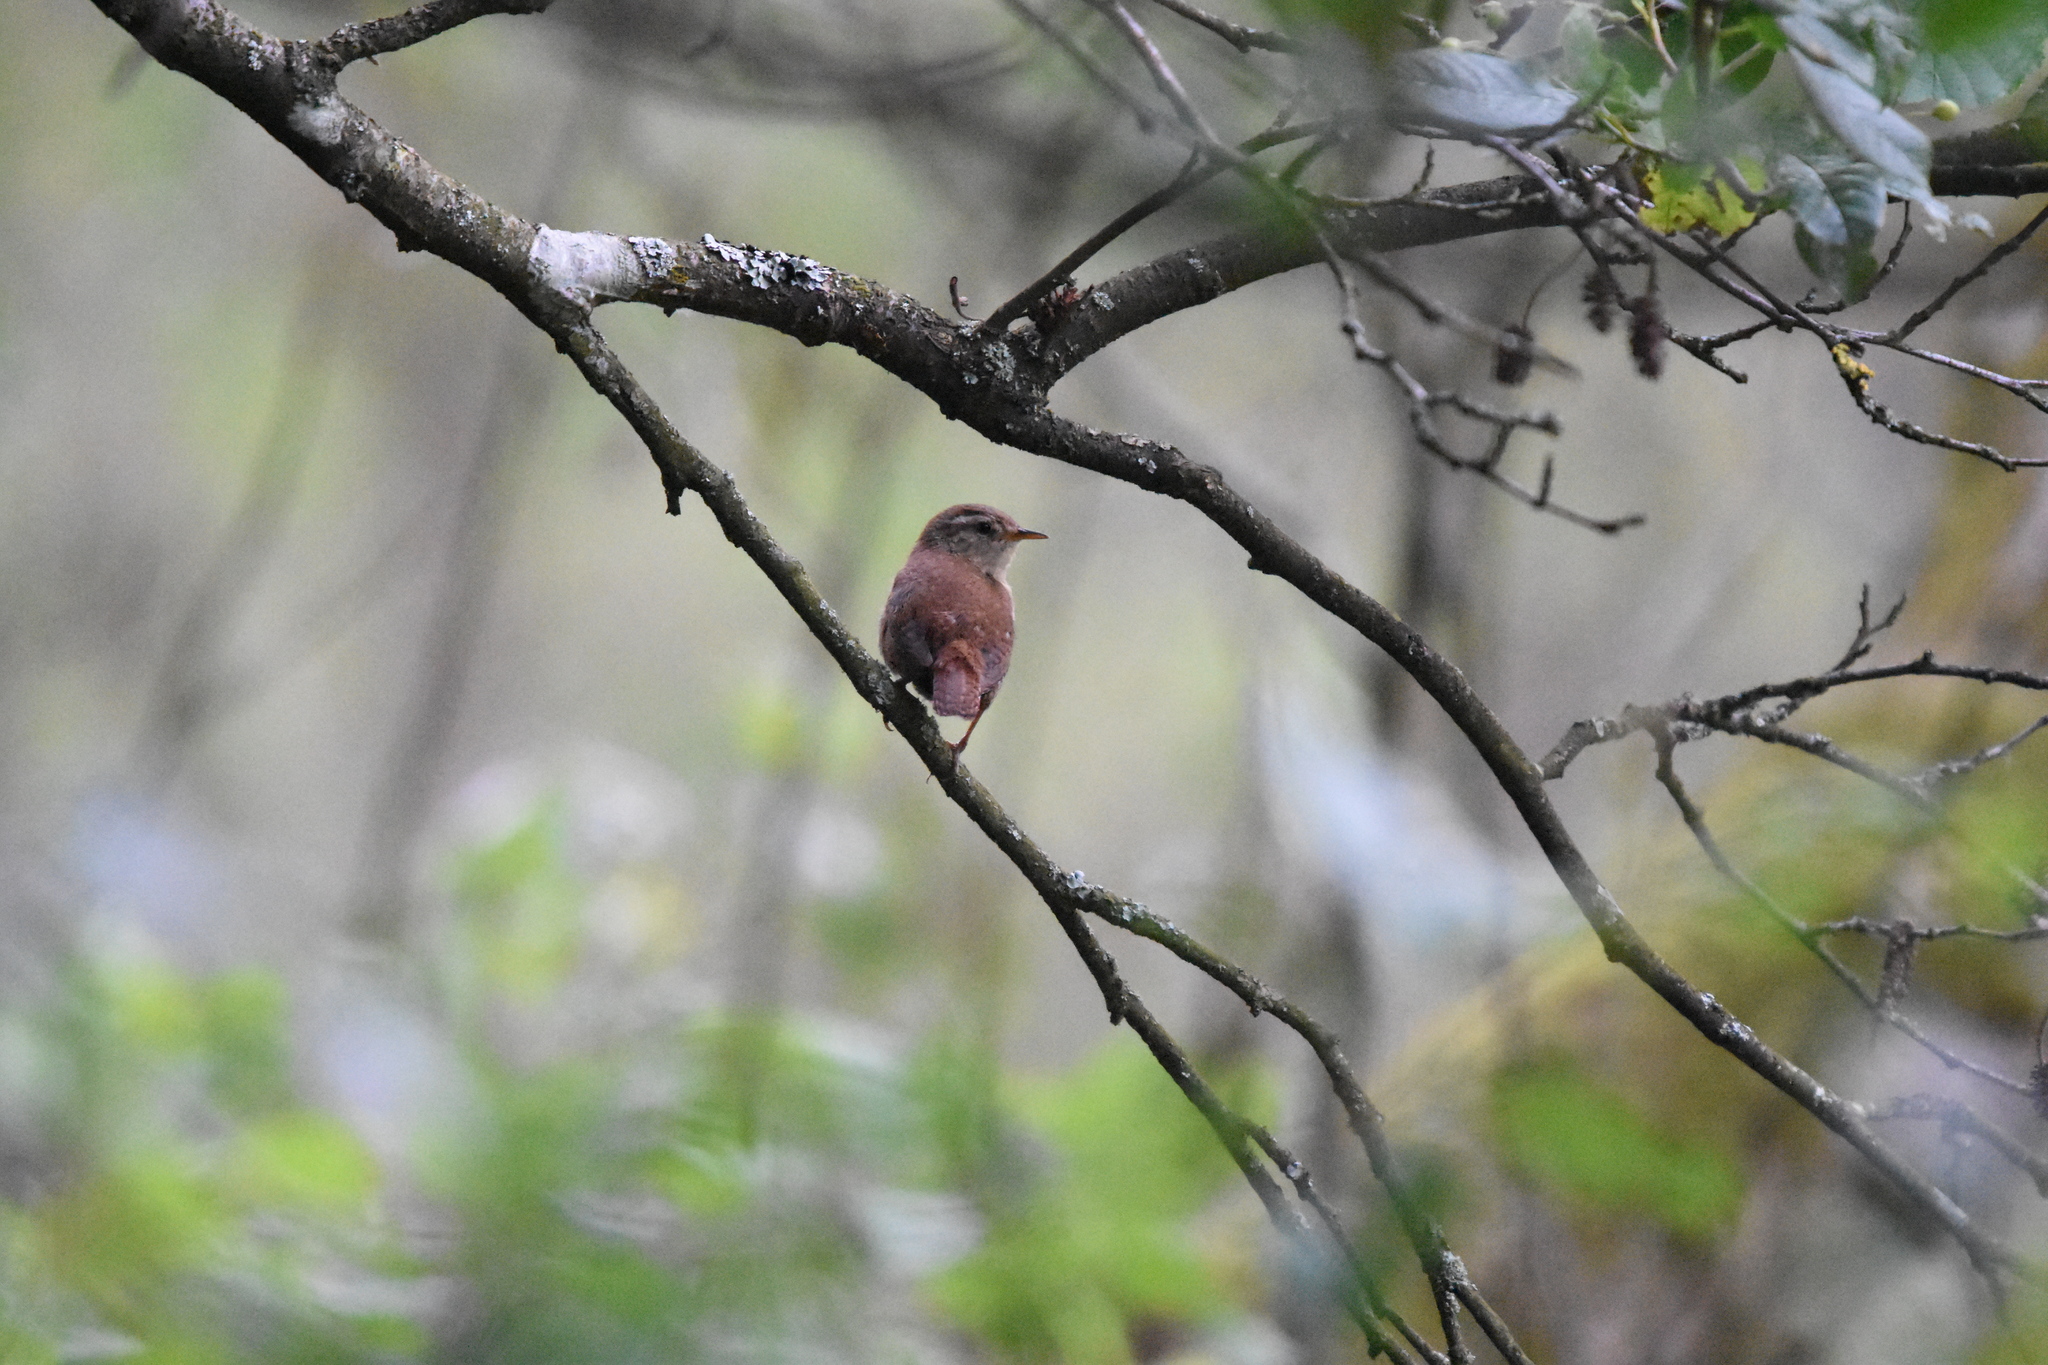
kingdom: Animalia
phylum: Chordata
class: Aves
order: Passeriformes
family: Troglodytidae
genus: Troglodytes
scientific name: Troglodytes troglodytes
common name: Eurasian wren
